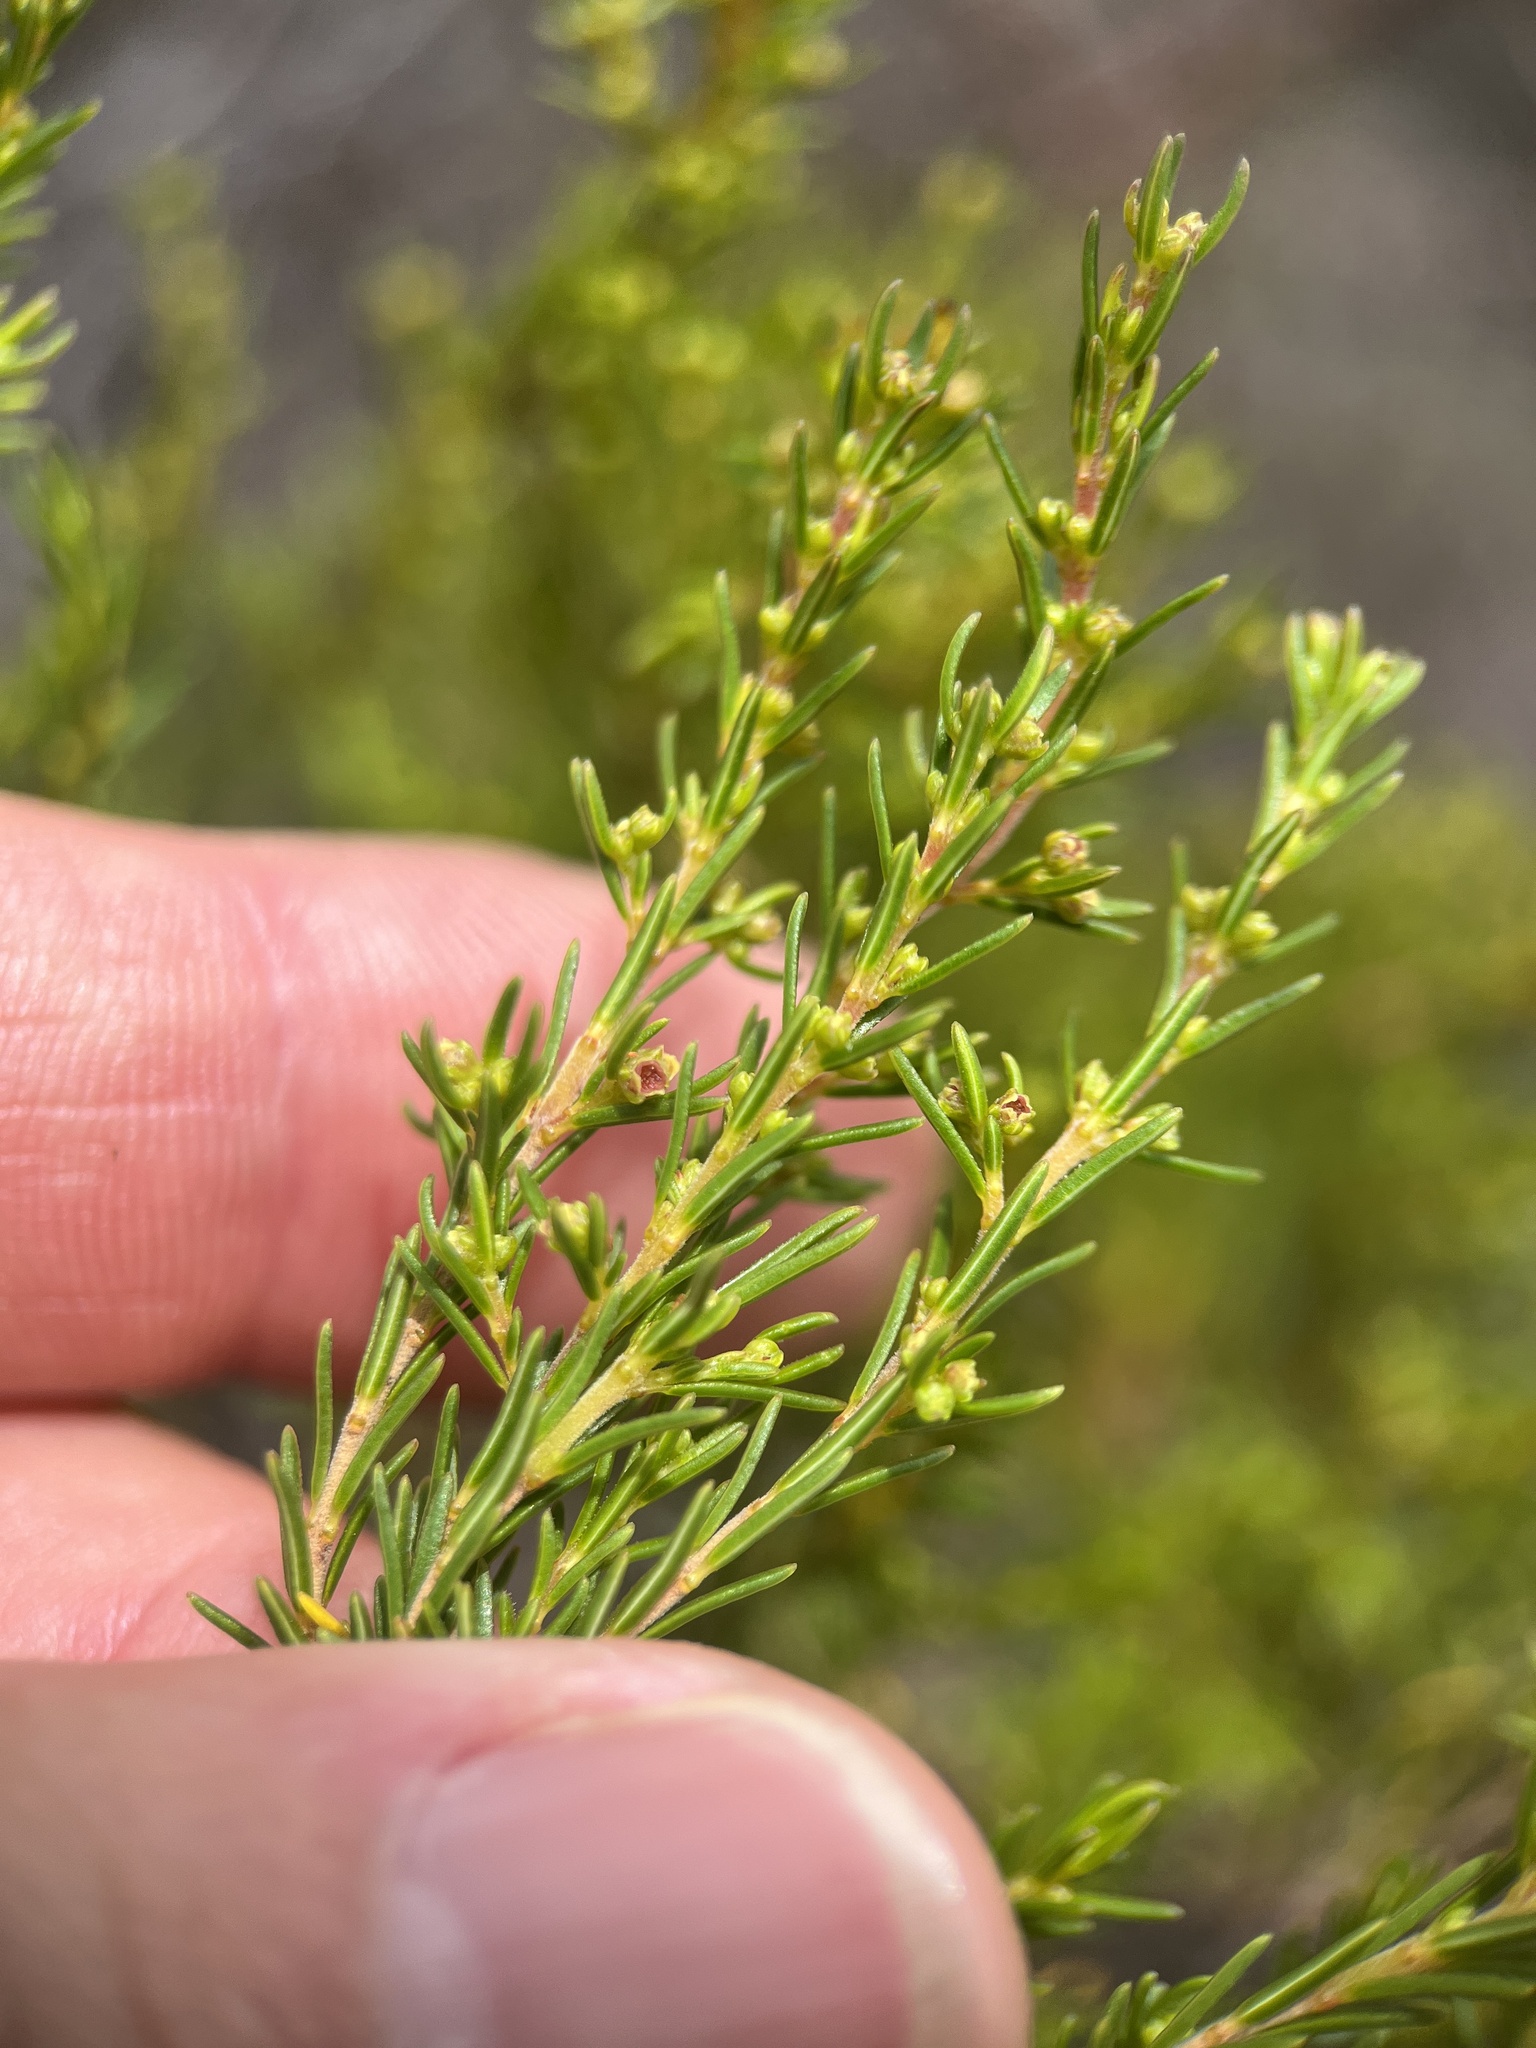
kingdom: Plantae
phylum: Tracheophyta
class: Magnoliopsida
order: Ericales
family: Ericaceae
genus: Erica
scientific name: Erica axillaris
